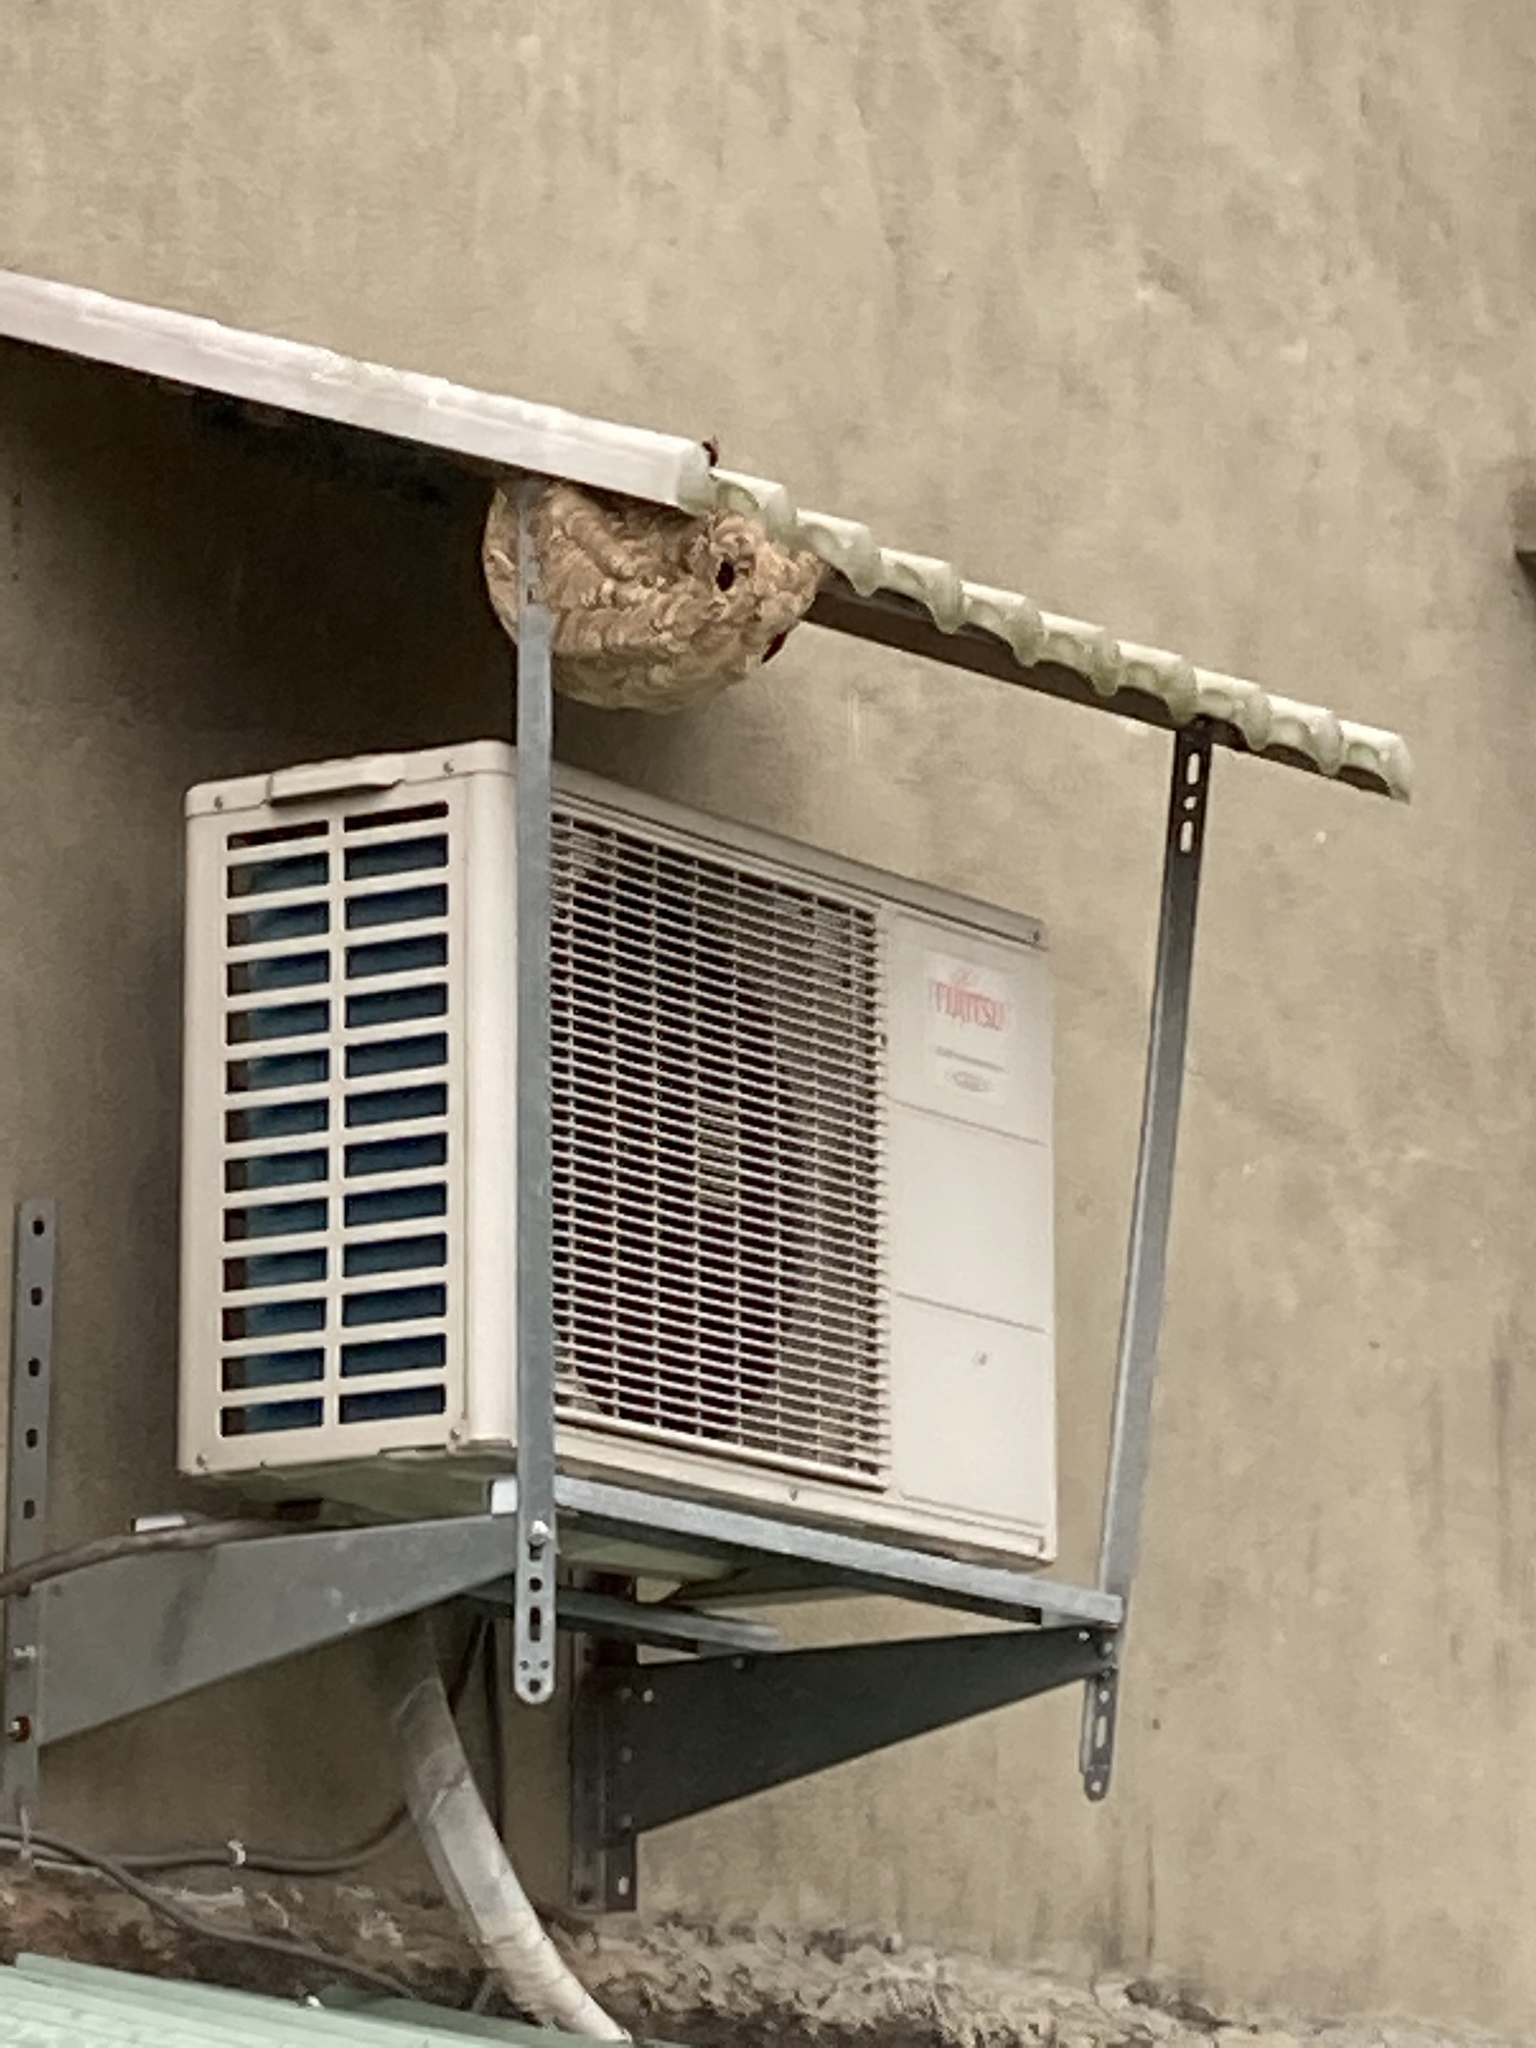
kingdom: Animalia
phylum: Arthropoda
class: Insecta
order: Hymenoptera
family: Vespidae
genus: Vespa
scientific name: Vespa affinis
